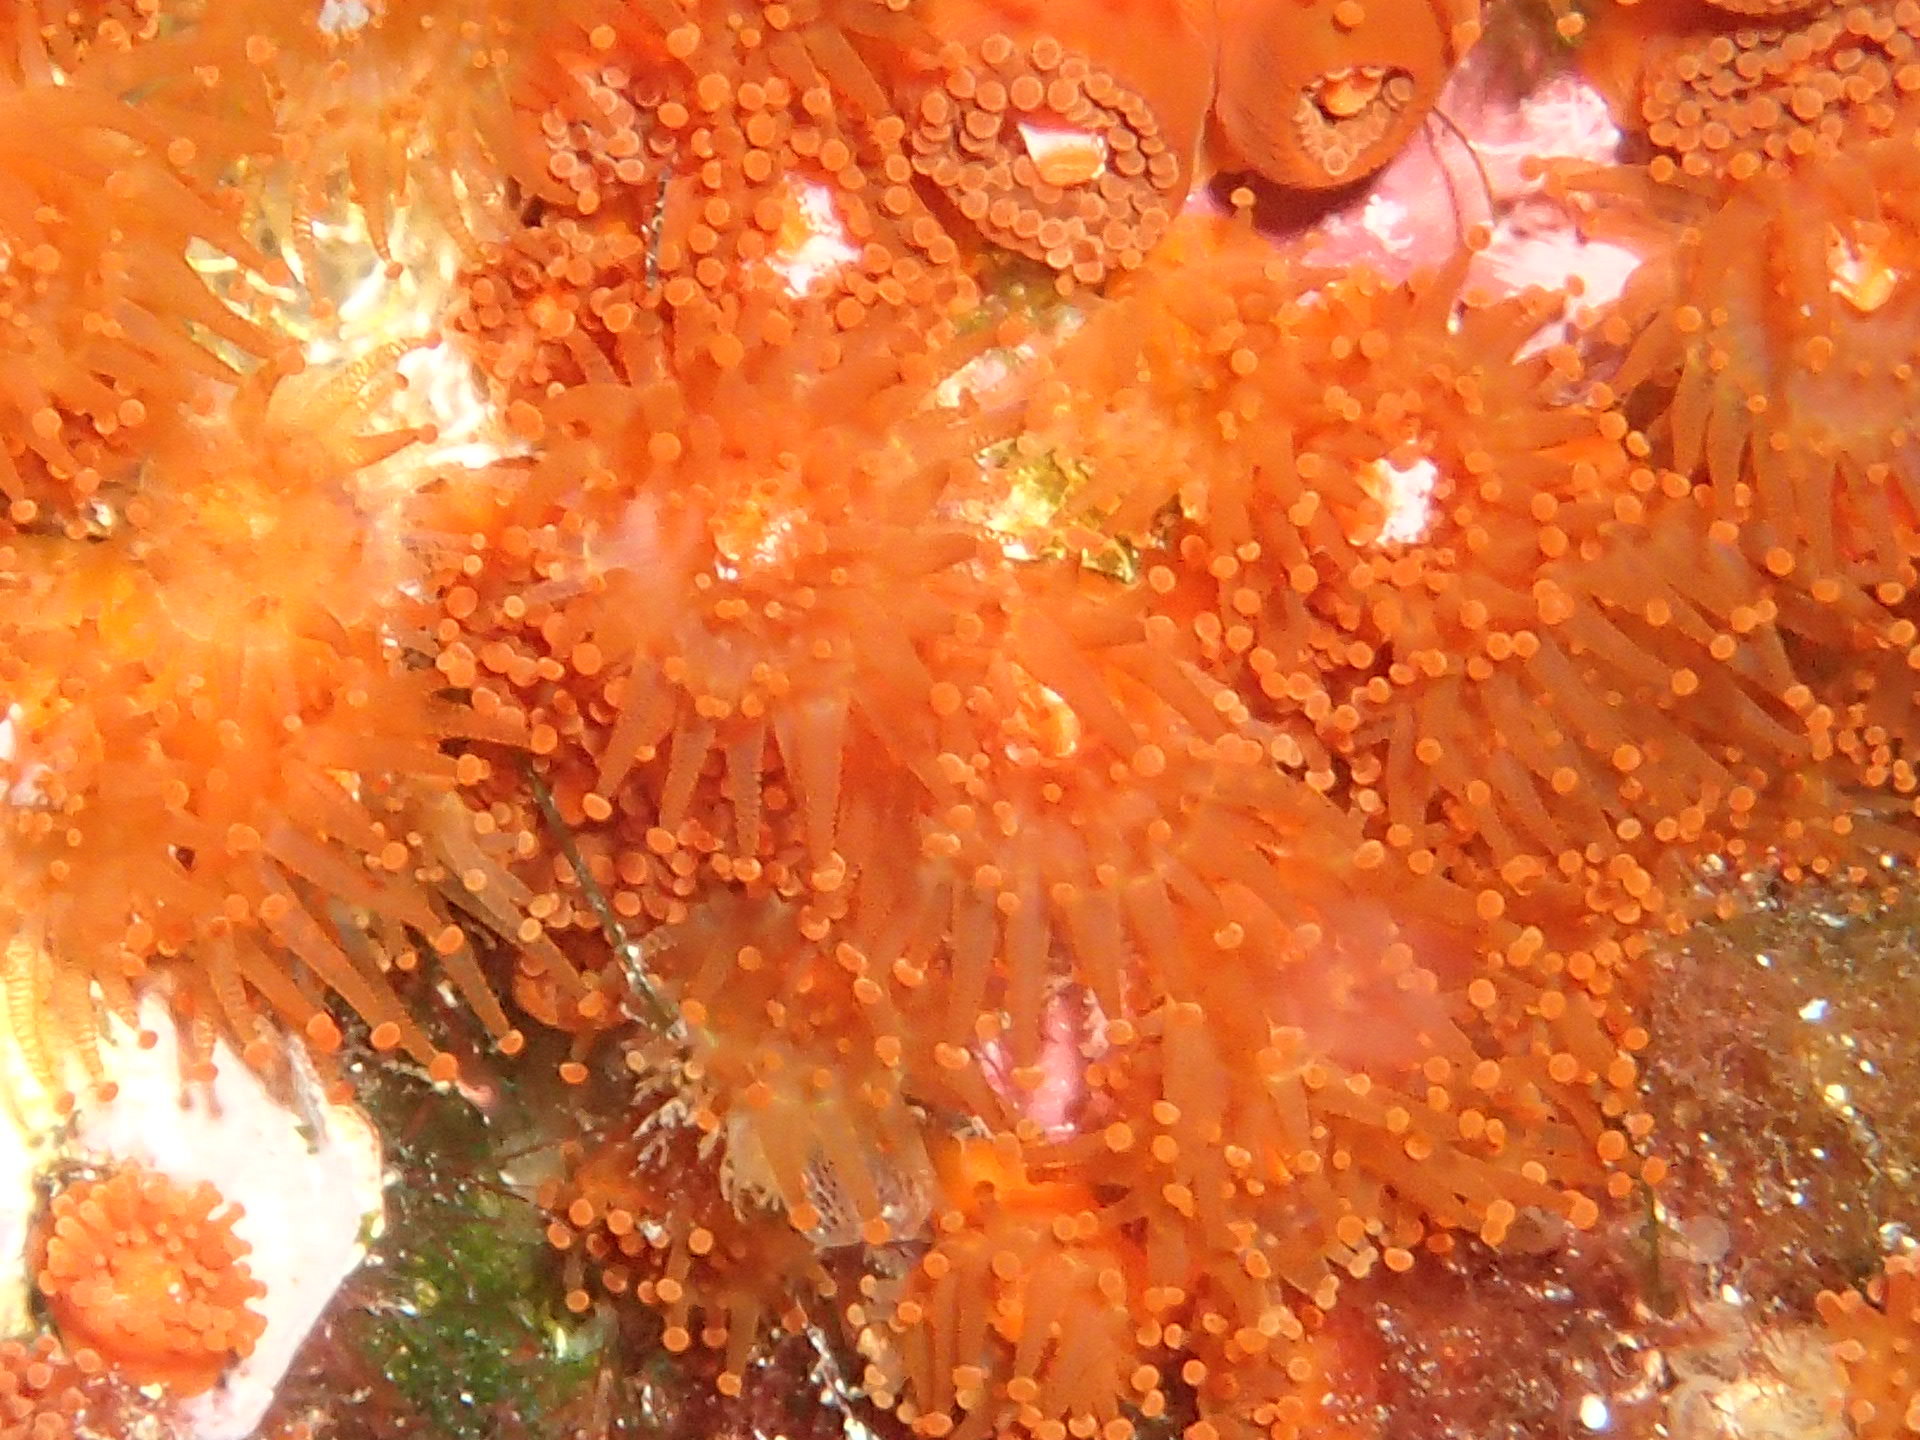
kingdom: Animalia
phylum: Cnidaria
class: Anthozoa
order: Corallimorpharia
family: Corallimorphidae
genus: Corynactis
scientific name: Corynactis viridis
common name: Jewel anemone
